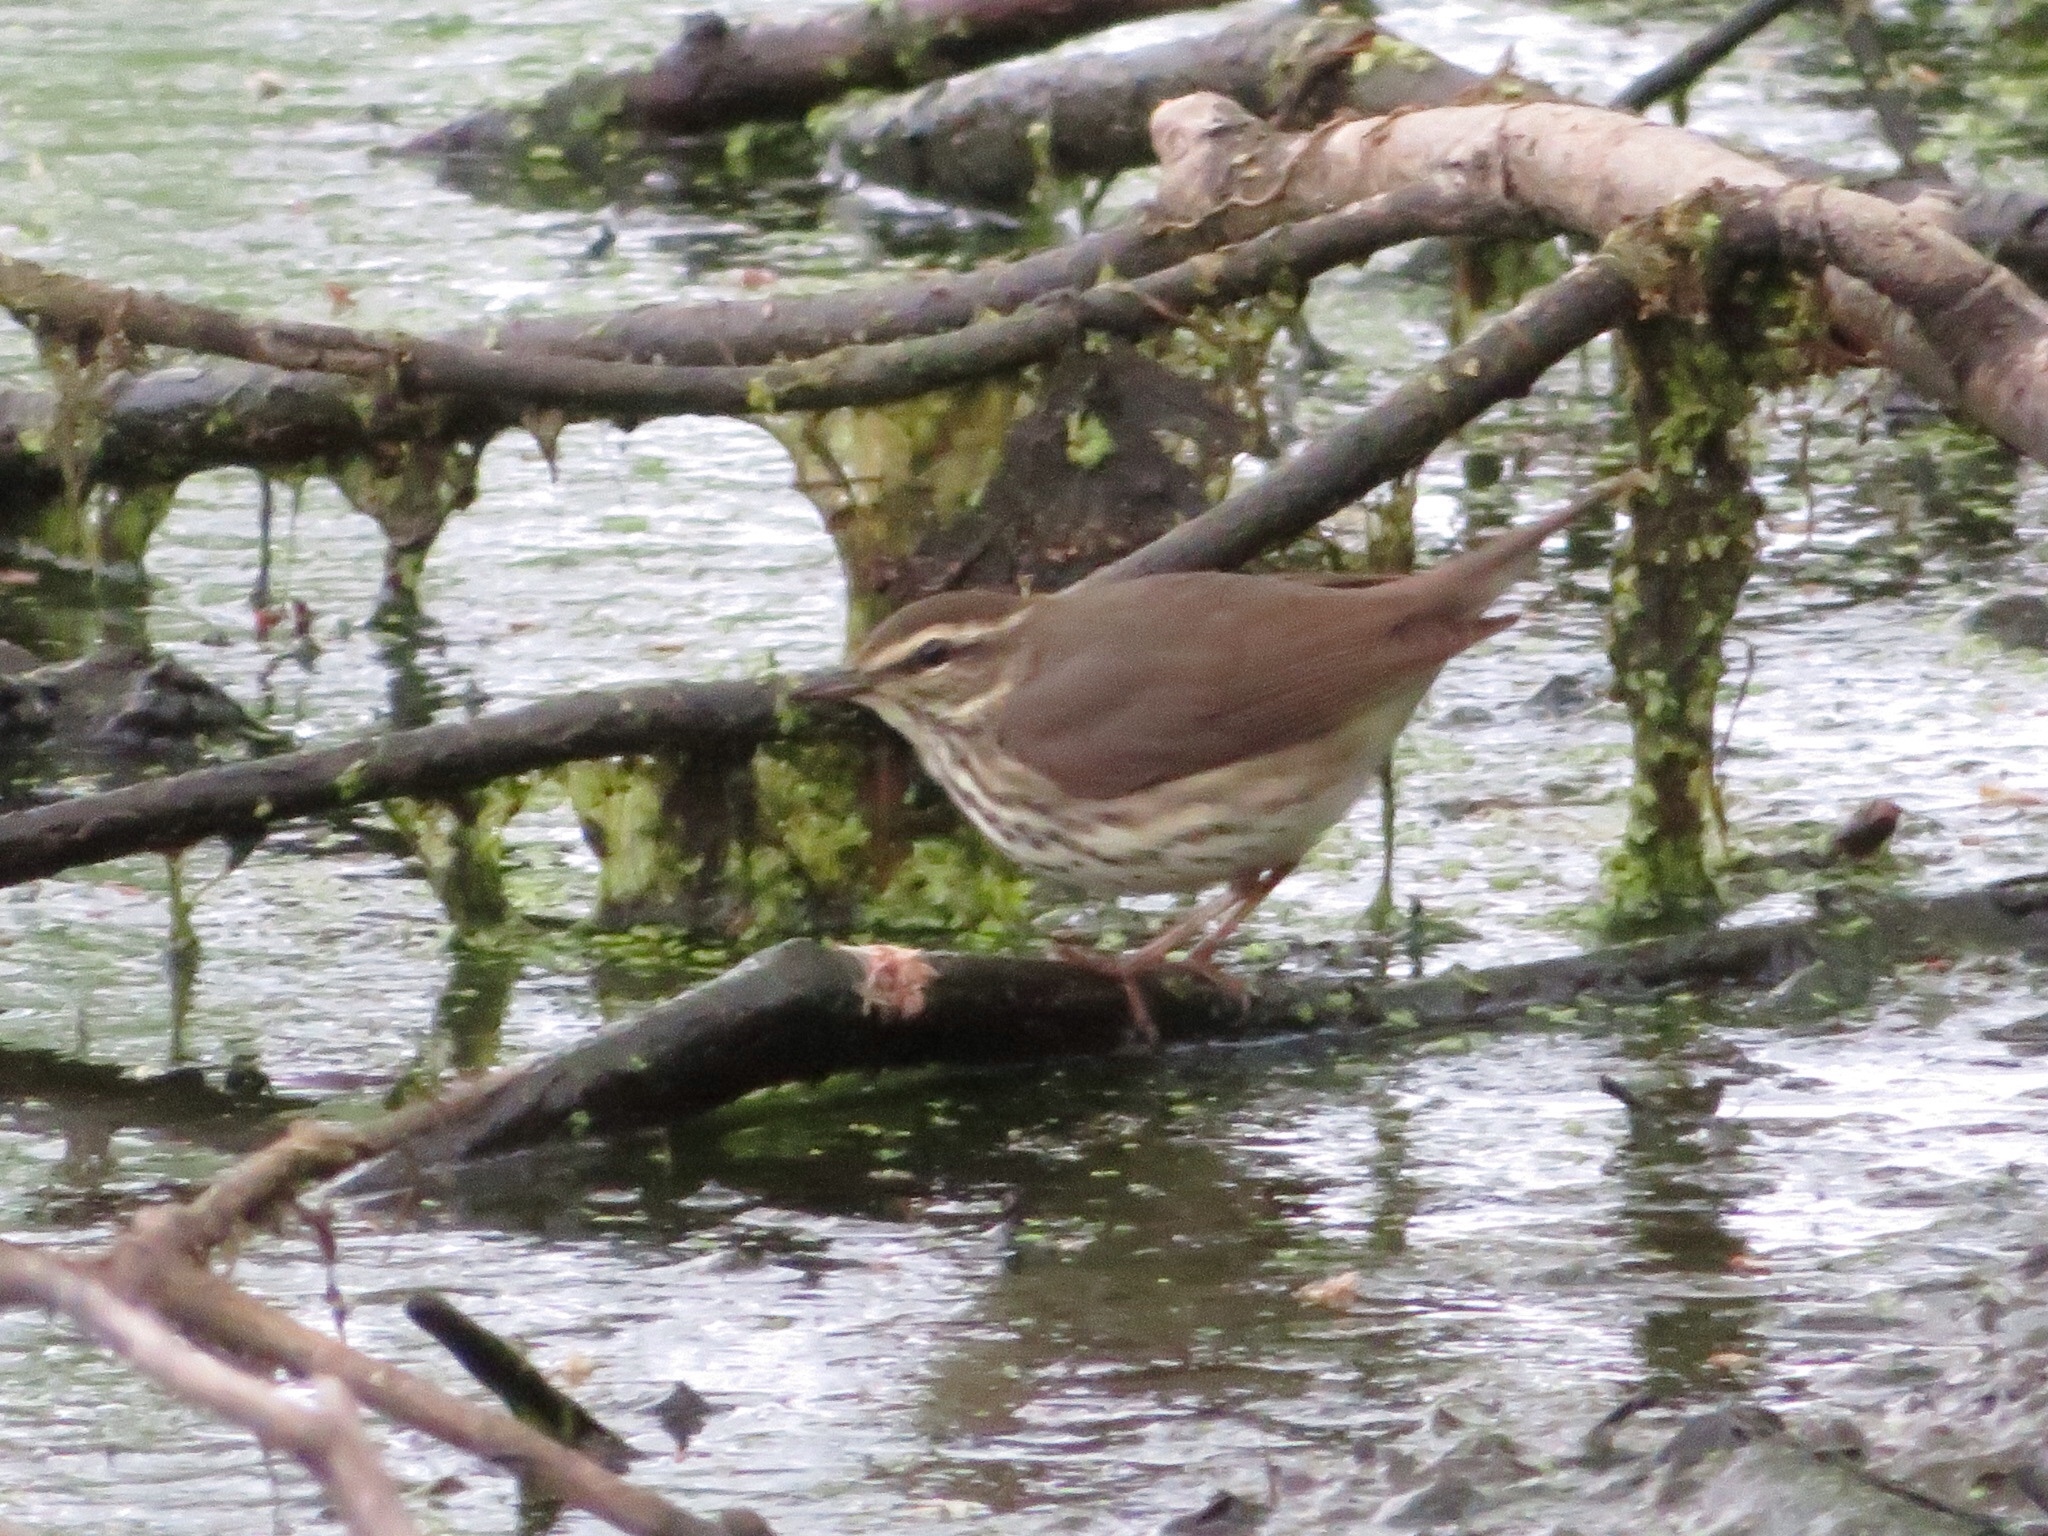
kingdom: Animalia
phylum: Chordata
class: Aves
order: Passeriformes
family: Parulidae
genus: Parkesia
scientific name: Parkesia noveboracensis
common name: Northern waterthrush
